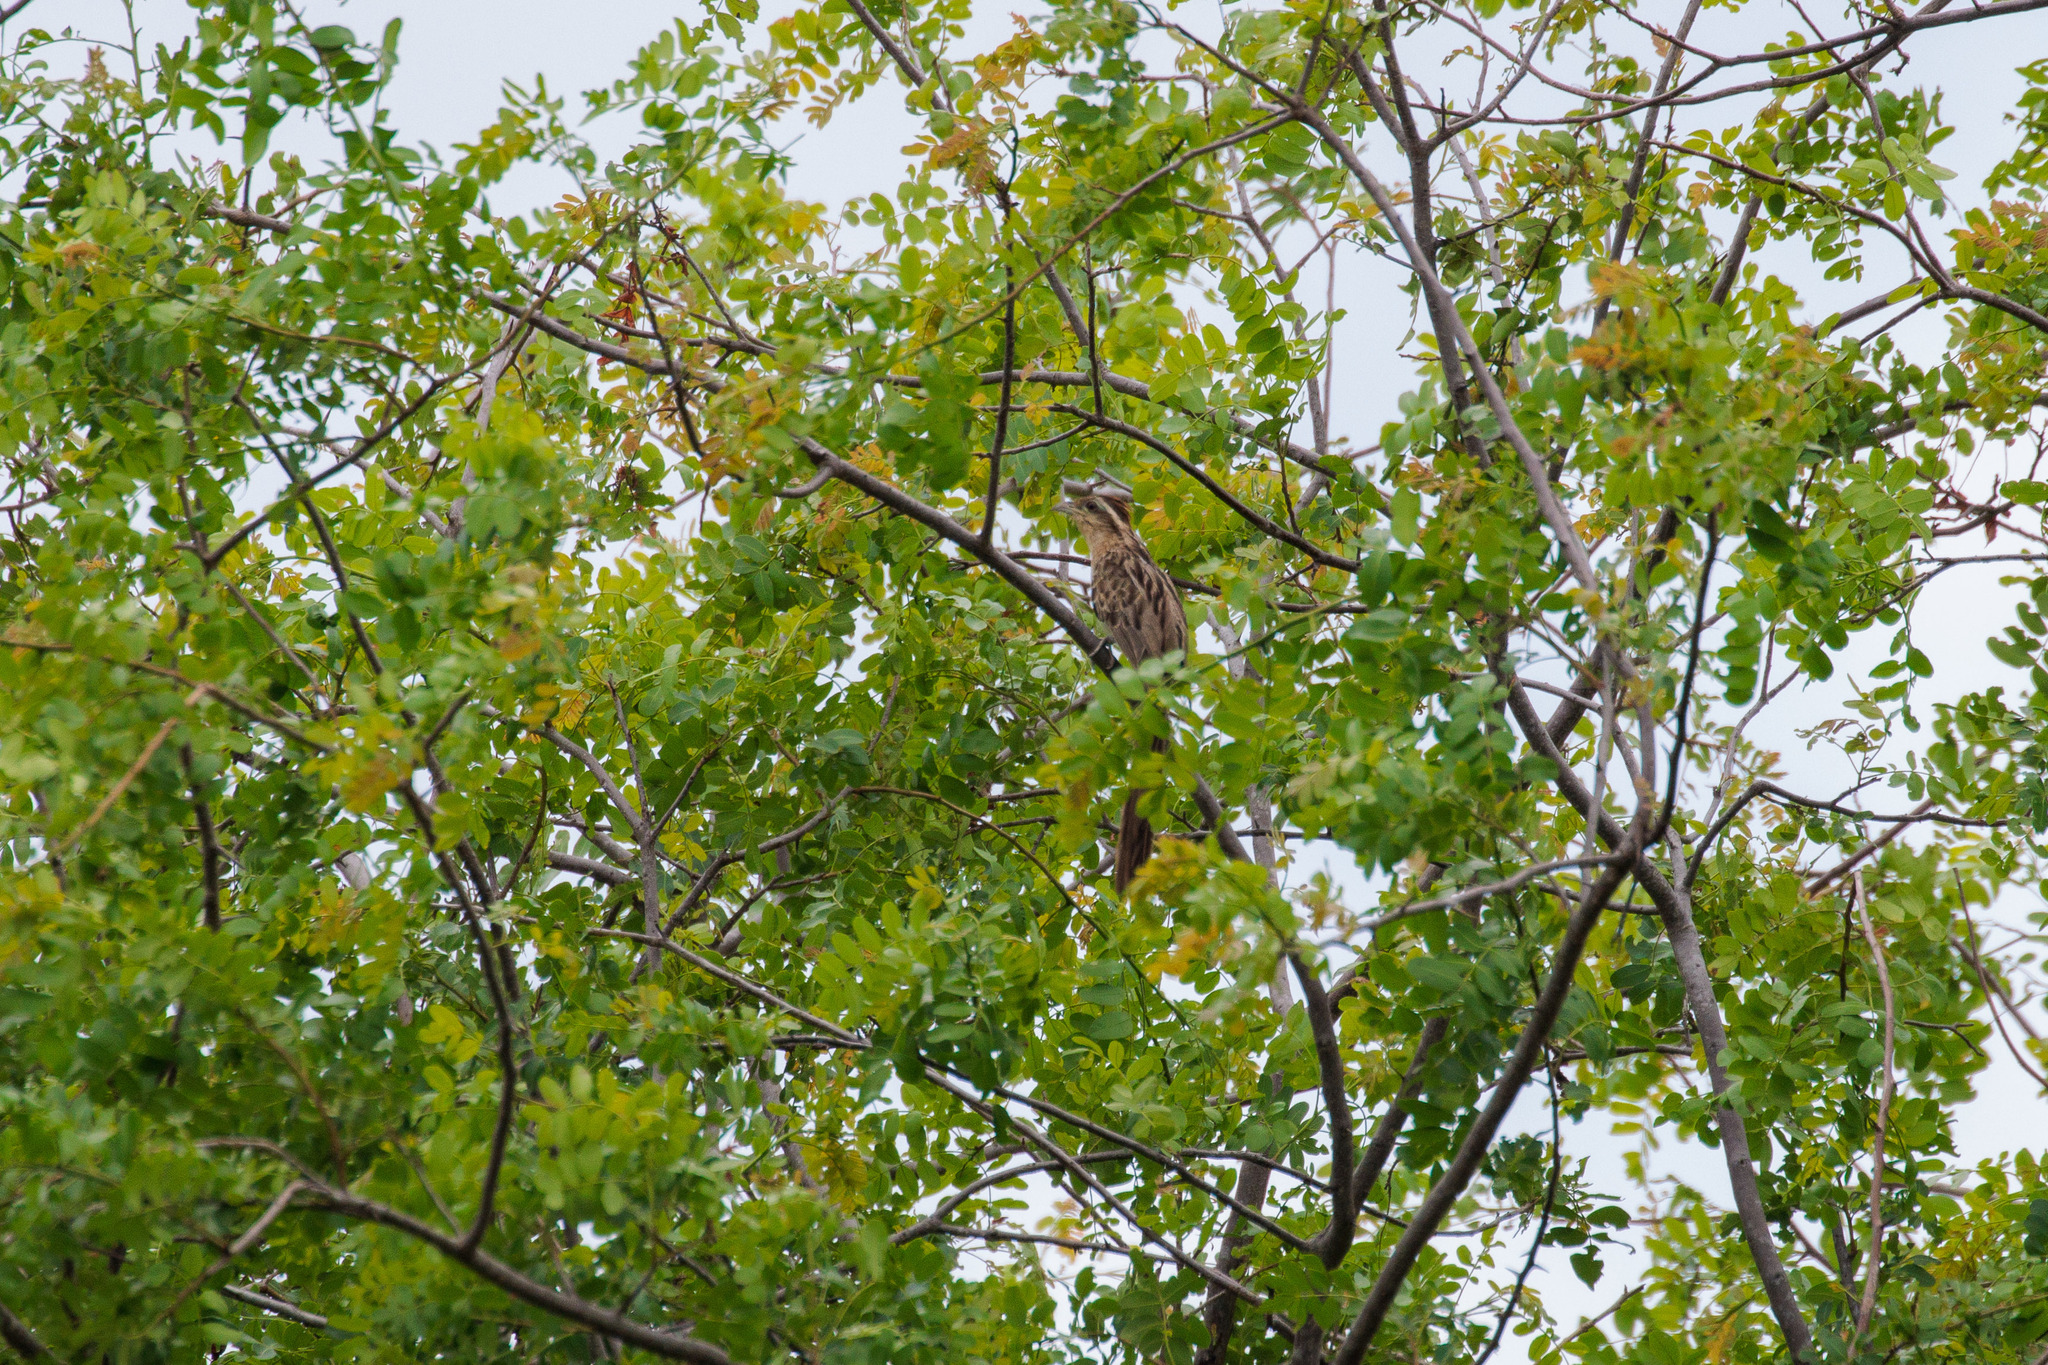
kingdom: Animalia
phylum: Chordata
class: Aves
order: Cuculiformes
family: Cuculidae
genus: Tapera
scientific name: Tapera naevia
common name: Striped cuckoo
